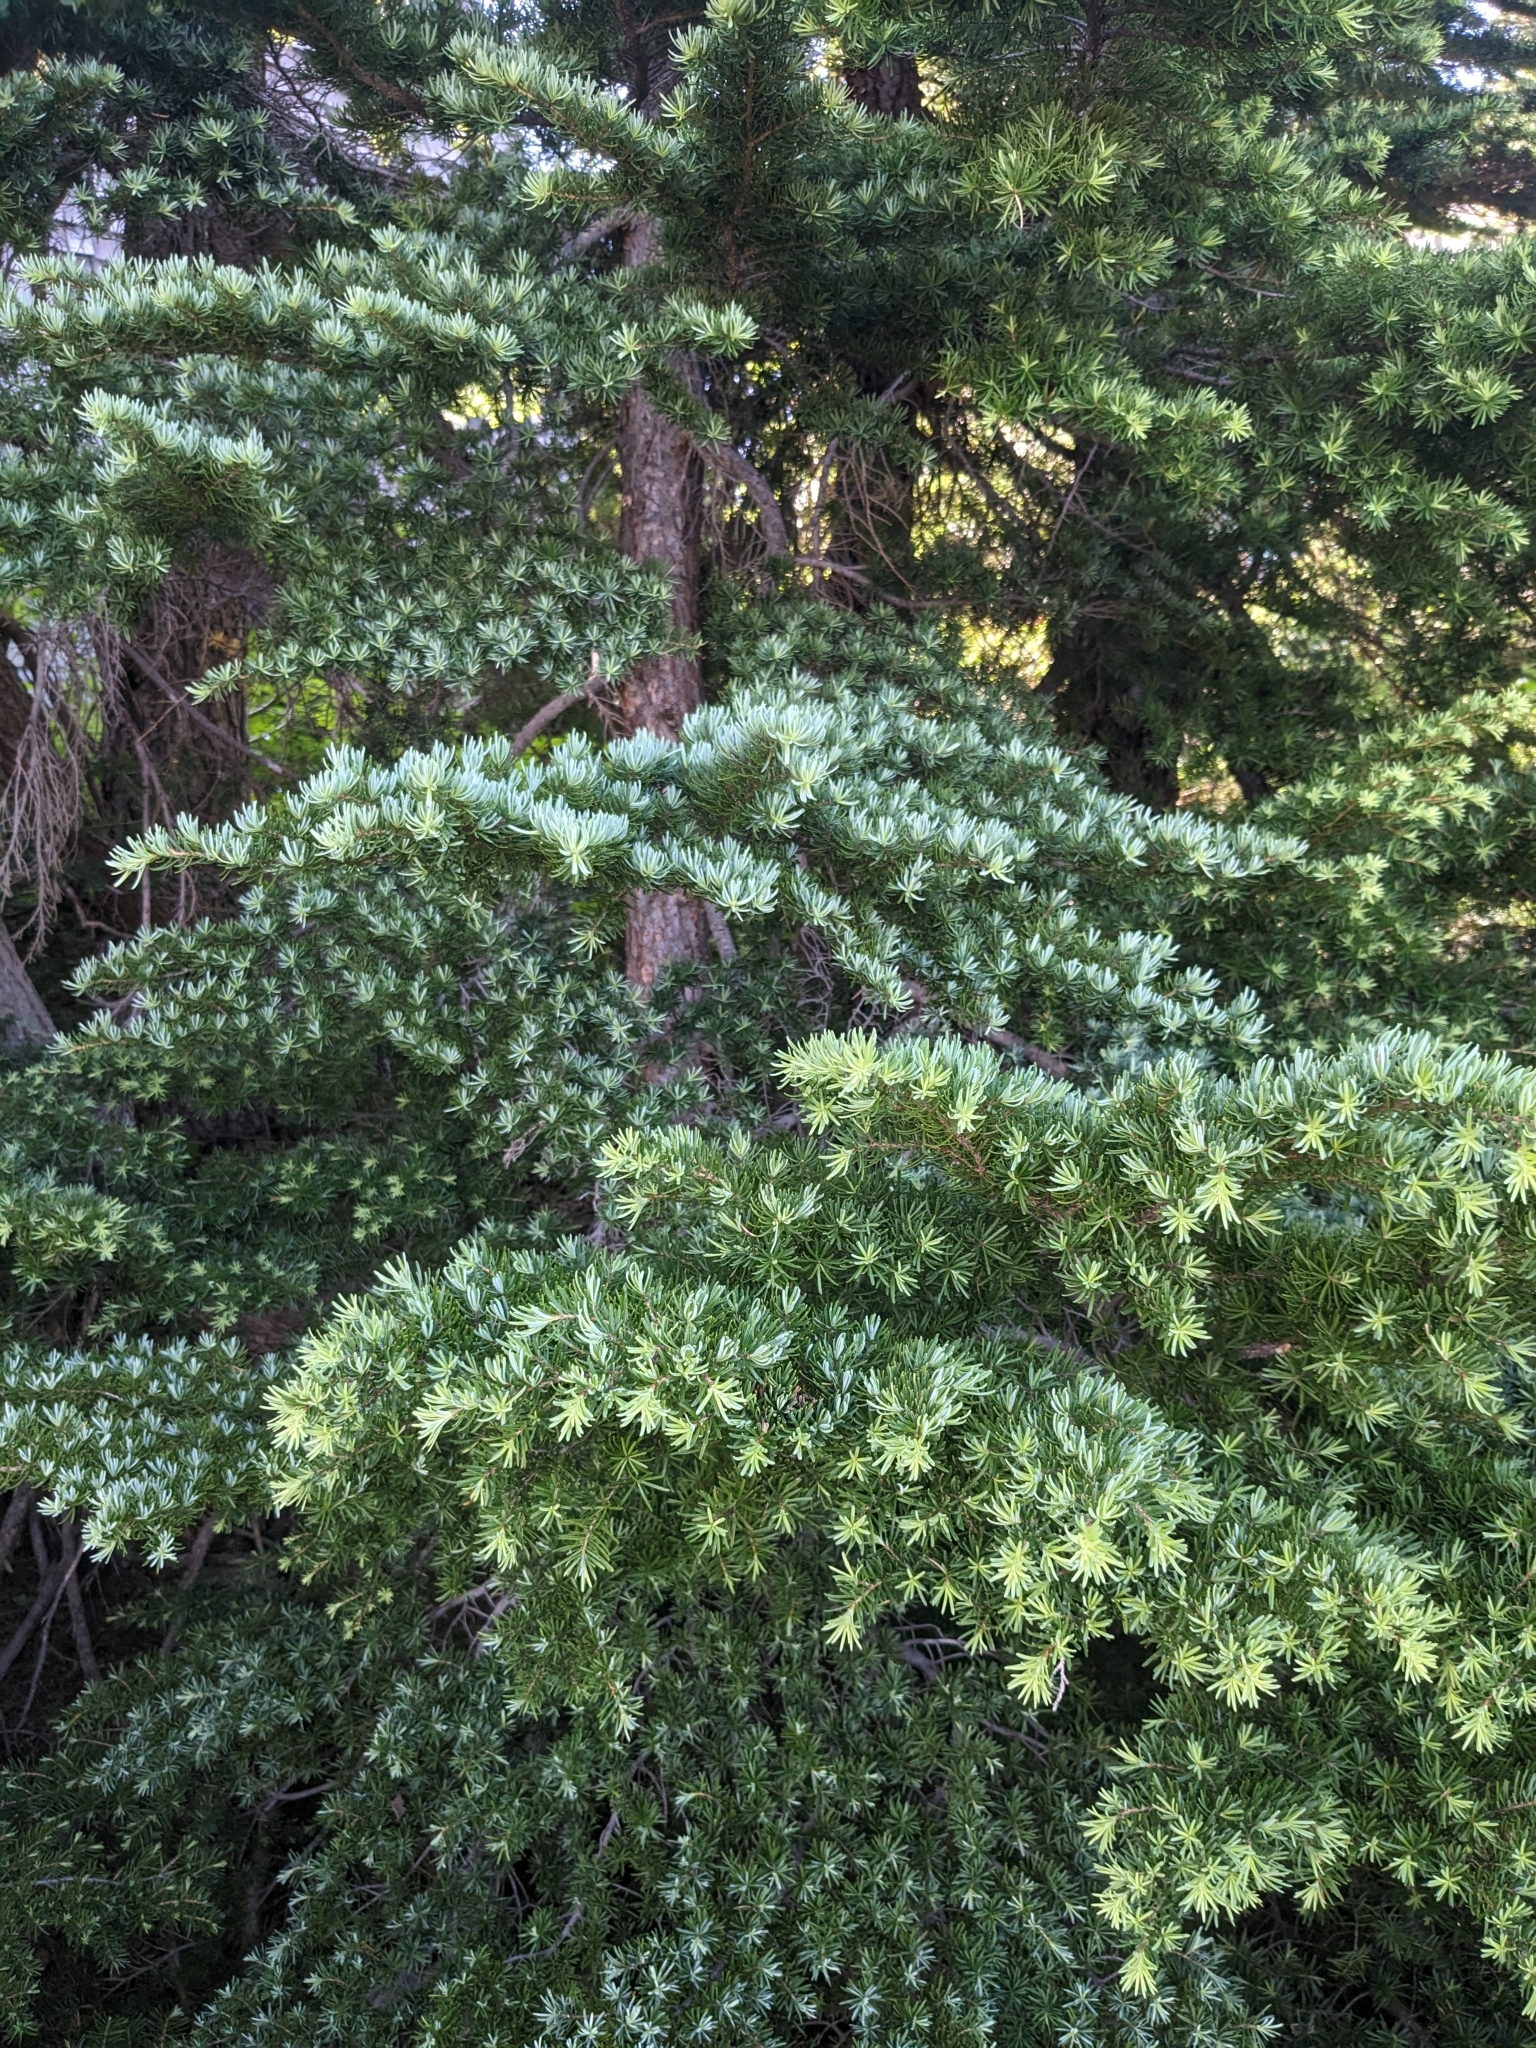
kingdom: Plantae
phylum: Tracheophyta
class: Pinopsida
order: Pinales
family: Pinaceae
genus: Tsuga
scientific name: Tsuga mertensiana
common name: Mountain hemlock
